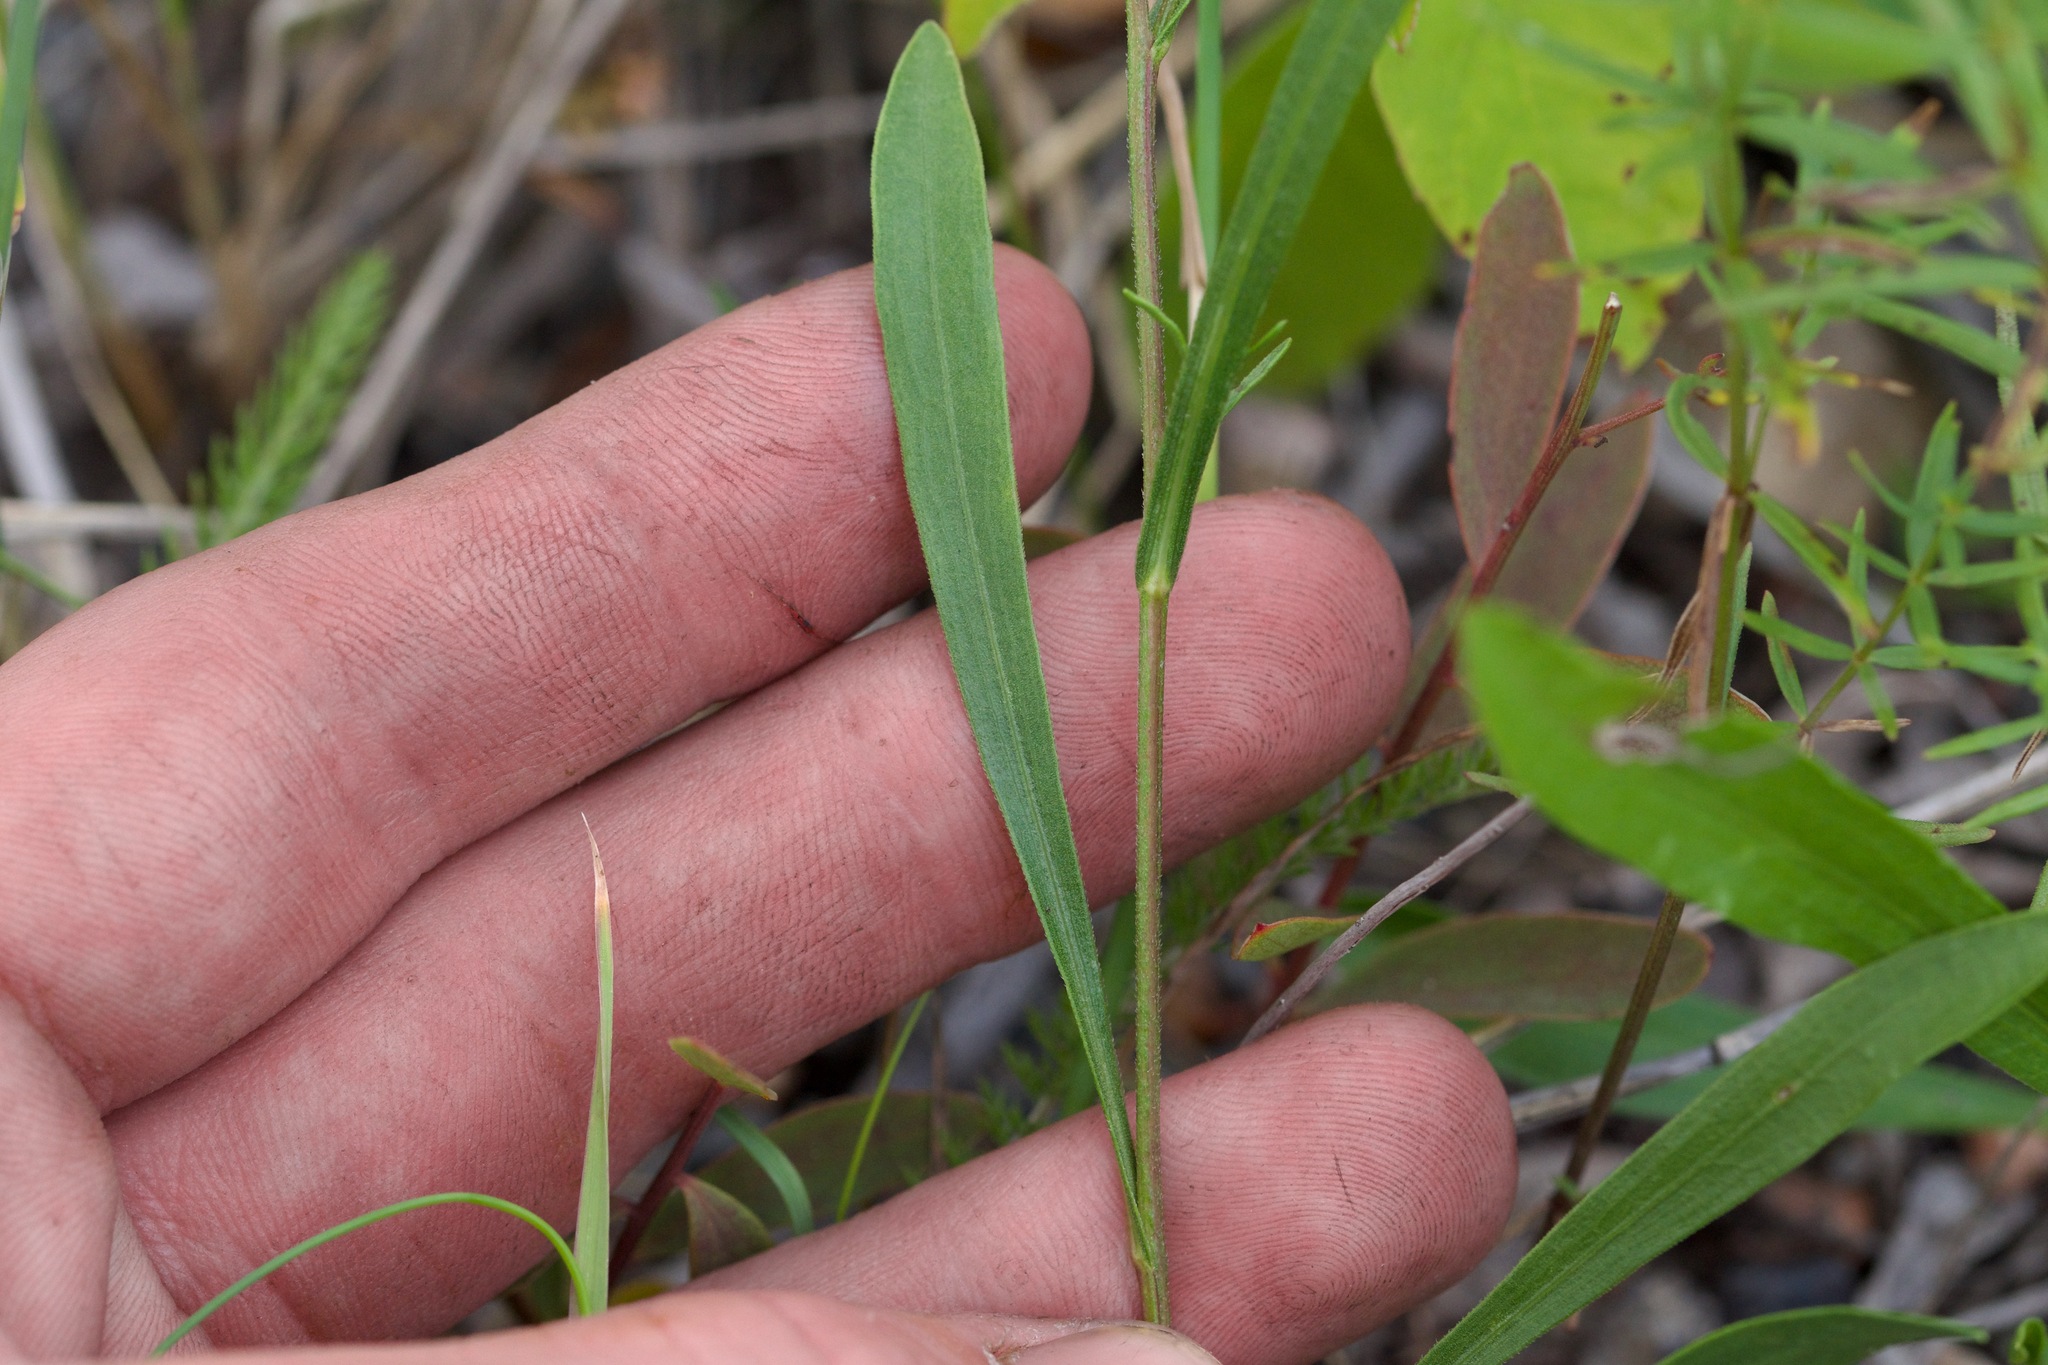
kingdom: Plantae
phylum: Tracheophyta
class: Magnoliopsida
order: Asterales
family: Asteraceae
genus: Solidago
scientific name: Solidago ptarmicoides
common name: White flat-top goldenrod
